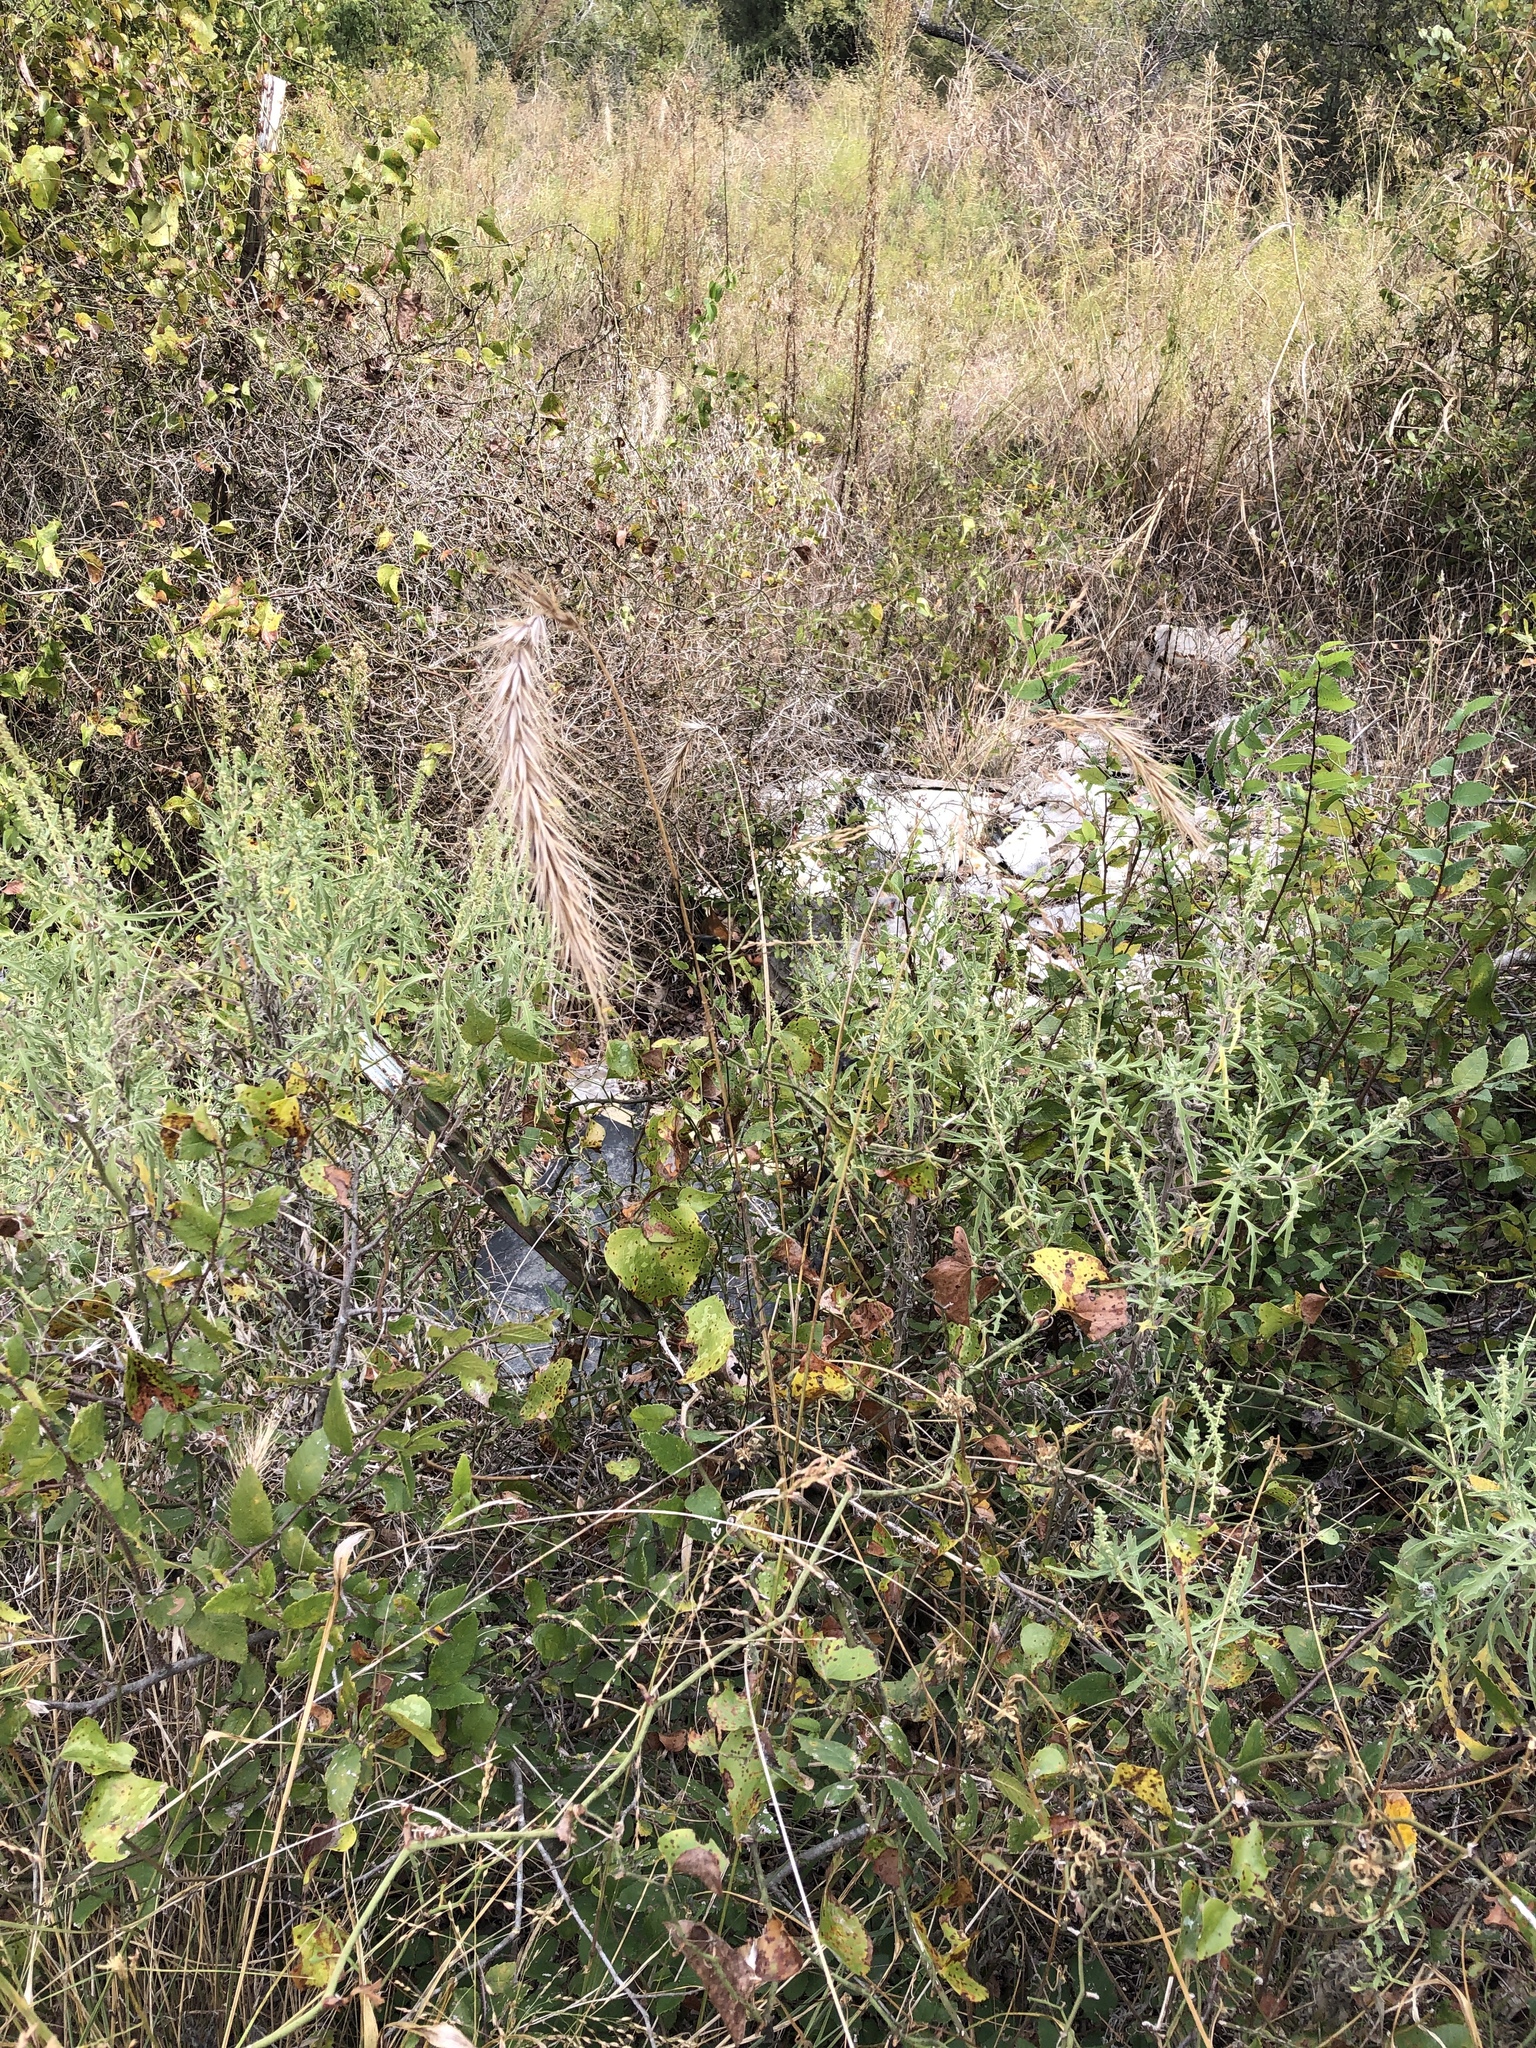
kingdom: Plantae
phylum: Tracheophyta
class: Liliopsida
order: Poales
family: Poaceae
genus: Elymus
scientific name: Elymus canadensis
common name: Canada wild rye
